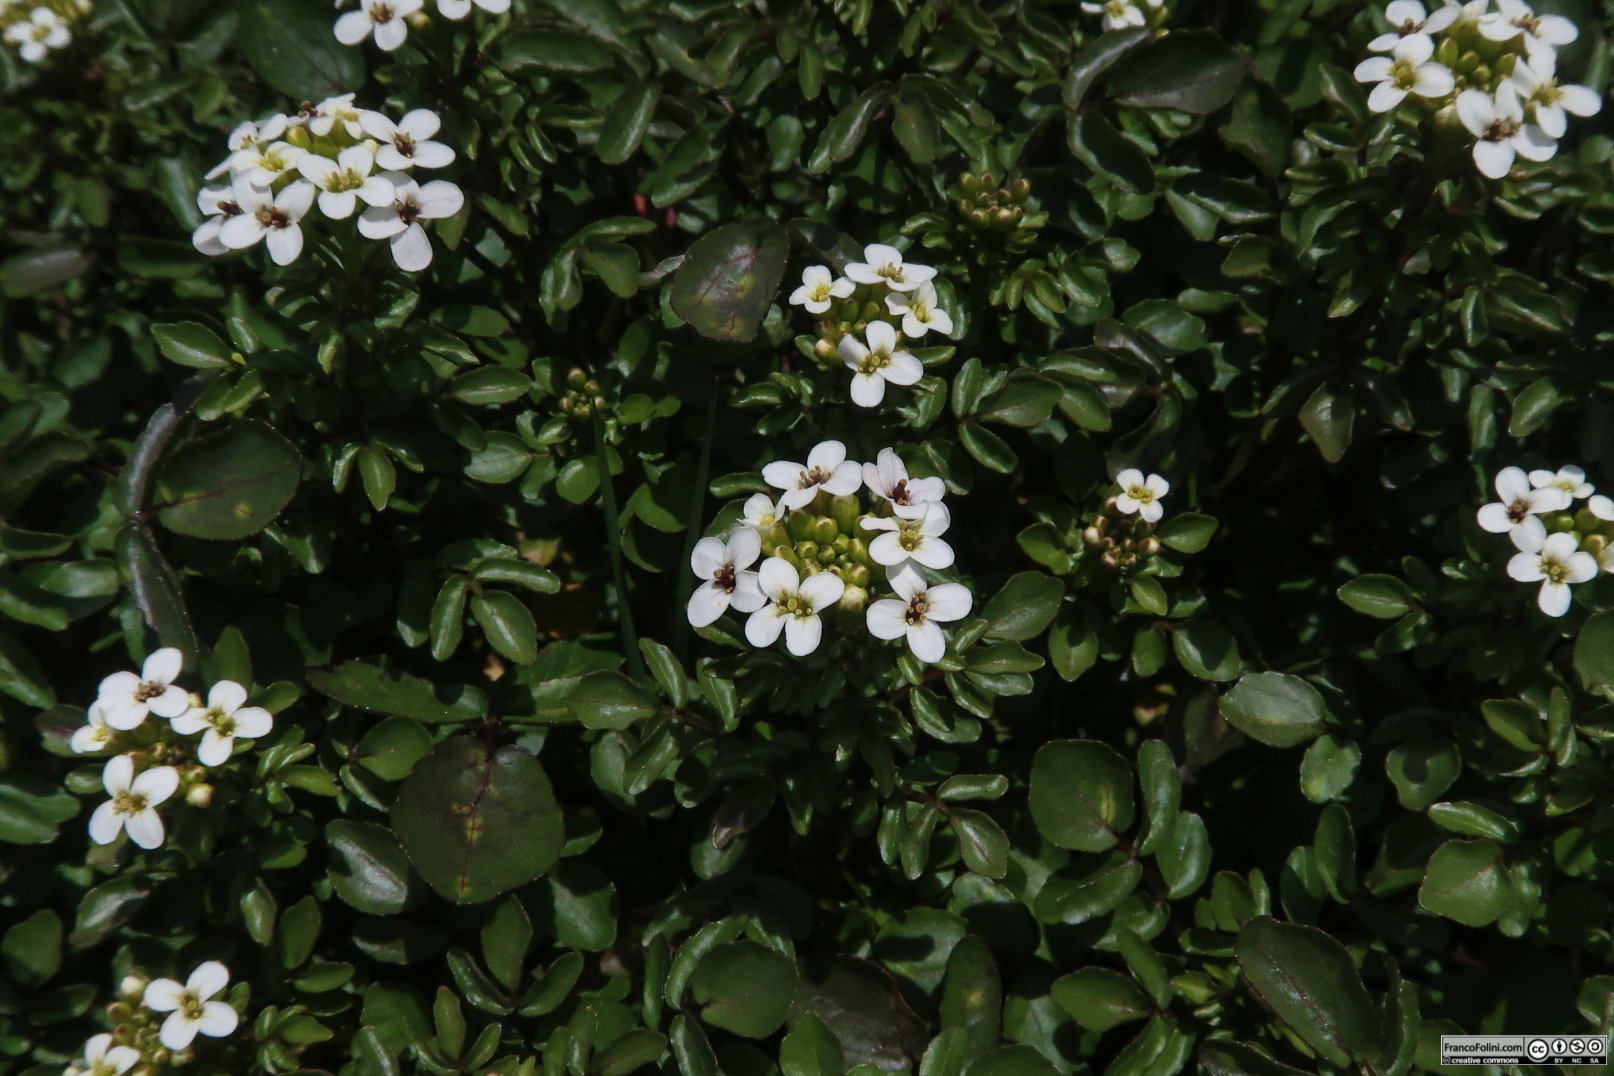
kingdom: Plantae
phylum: Tracheophyta
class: Magnoliopsida
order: Brassicales
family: Brassicaceae
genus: Nasturtium
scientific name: Nasturtium officinale
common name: Watercress
